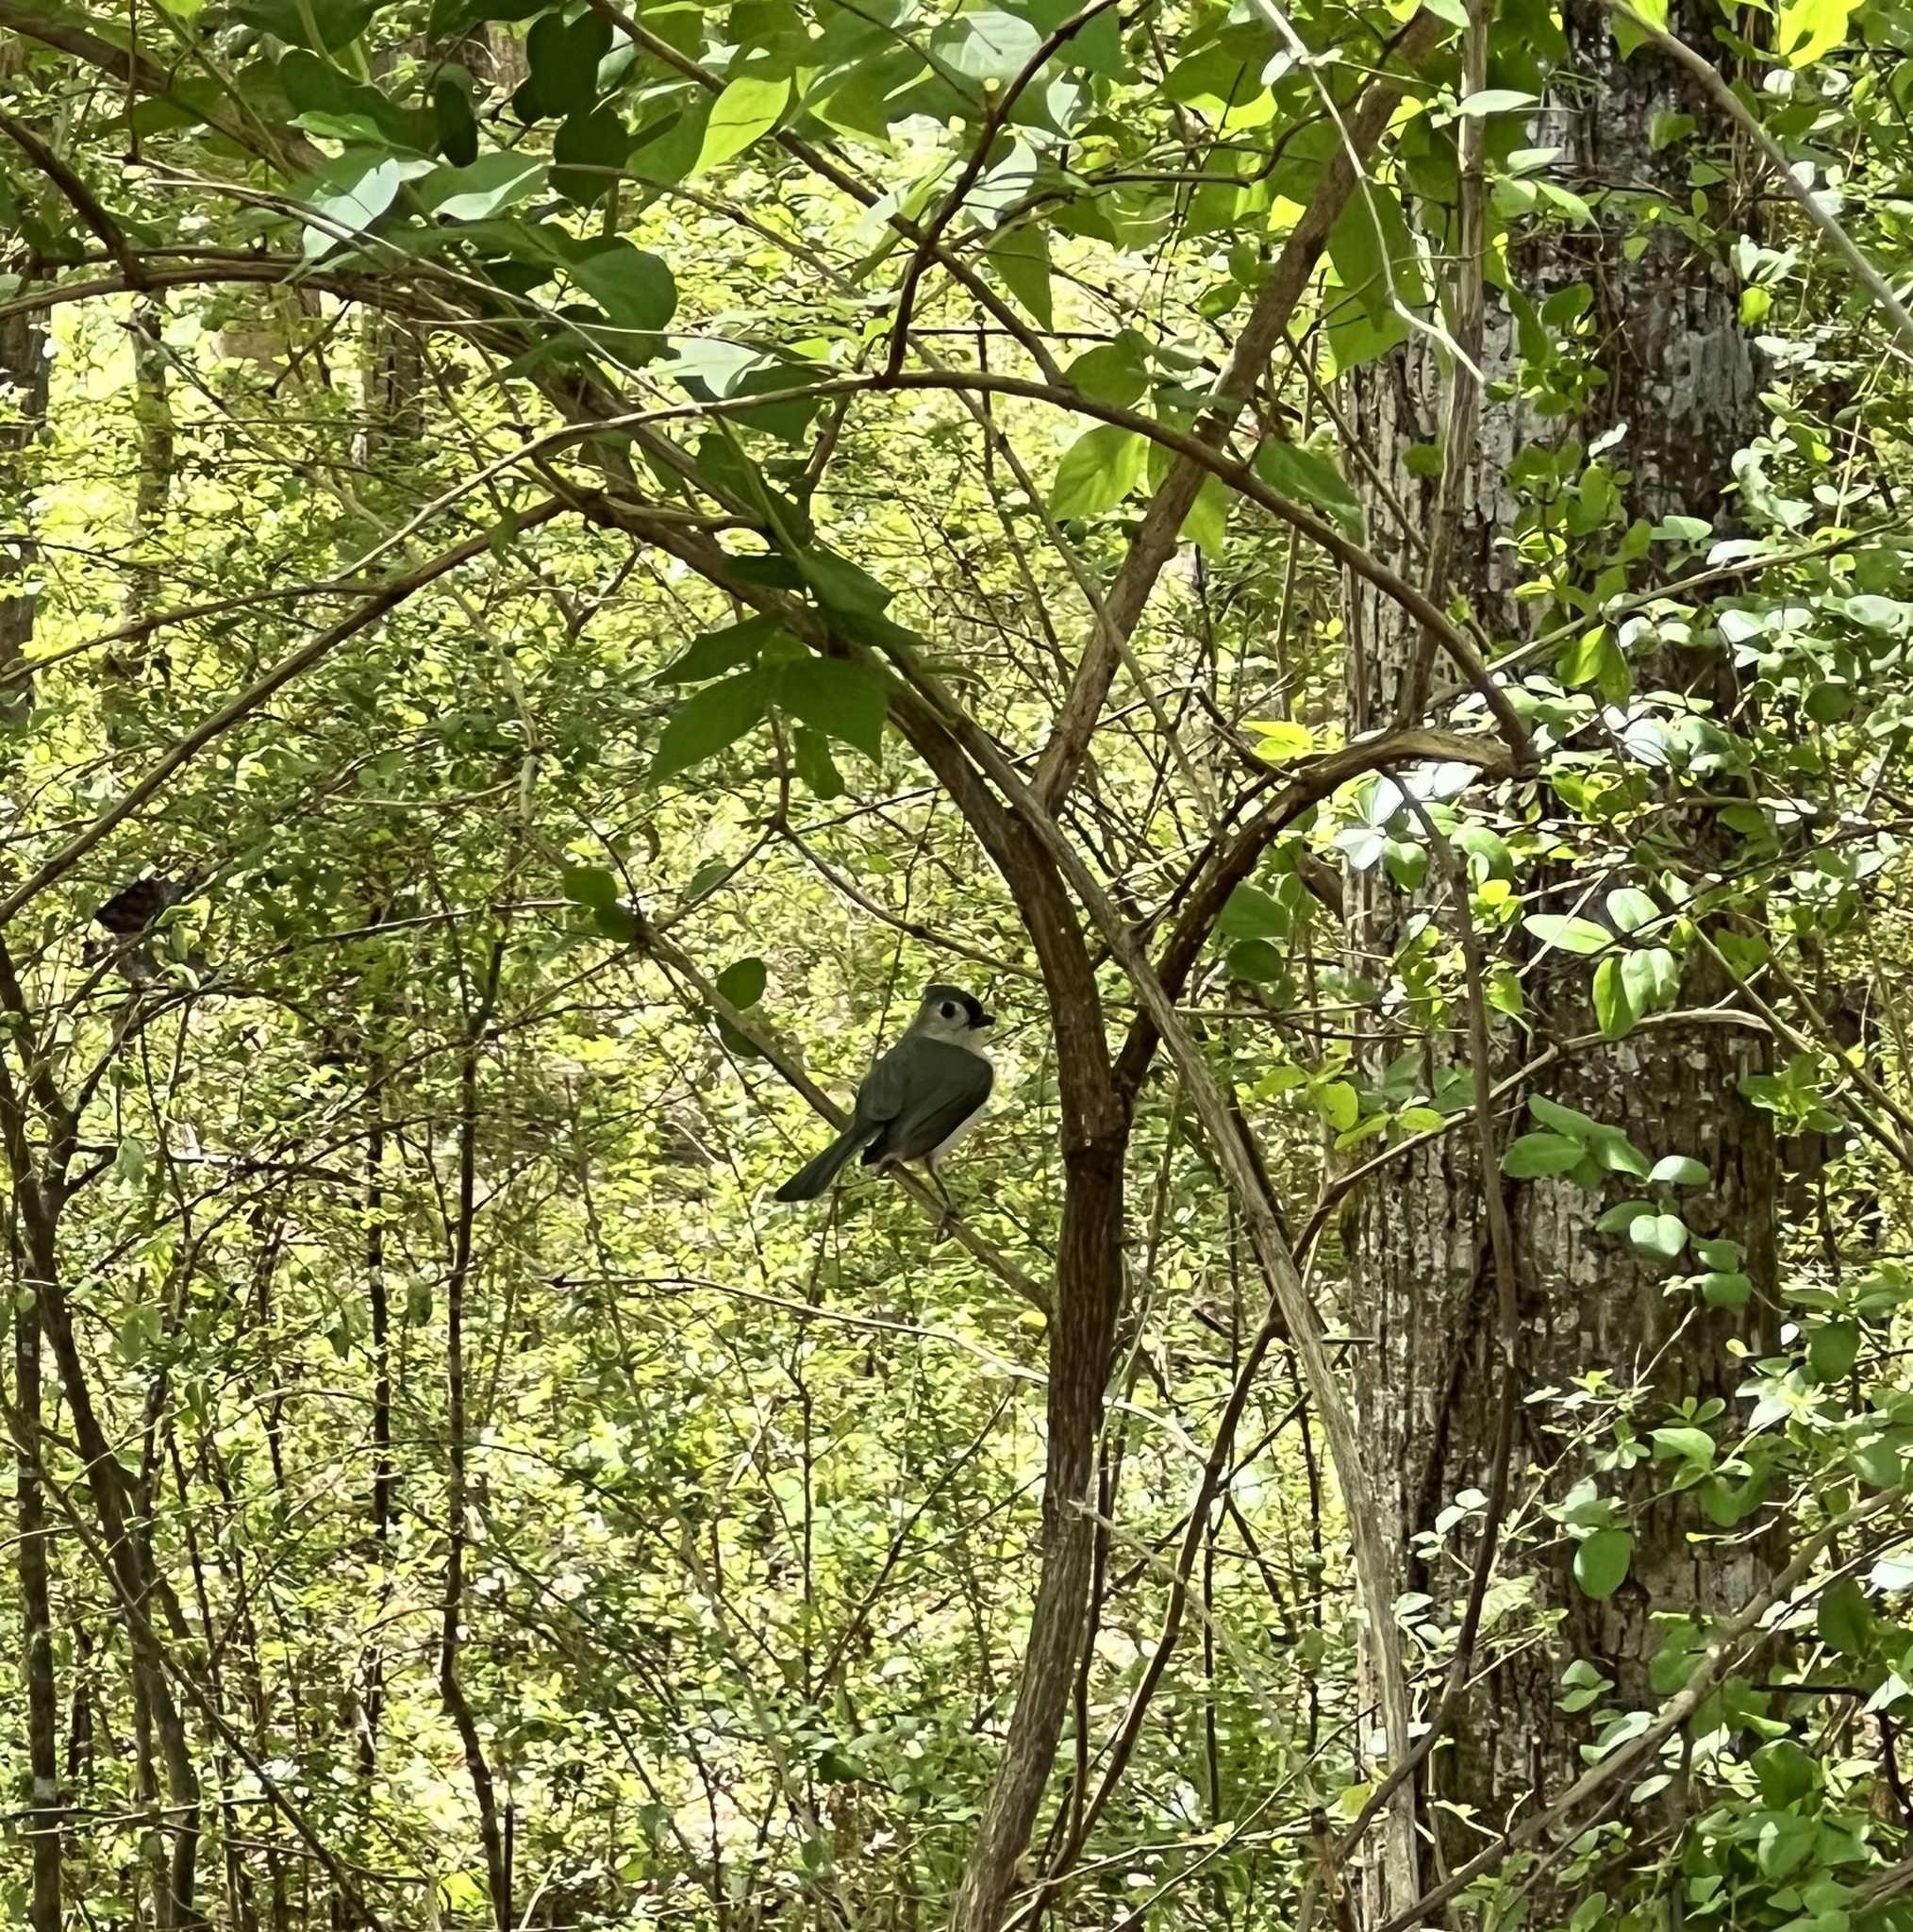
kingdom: Animalia
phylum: Chordata
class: Aves
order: Passeriformes
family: Paridae
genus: Baeolophus
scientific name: Baeolophus bicolor
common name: Tufted titmouse
